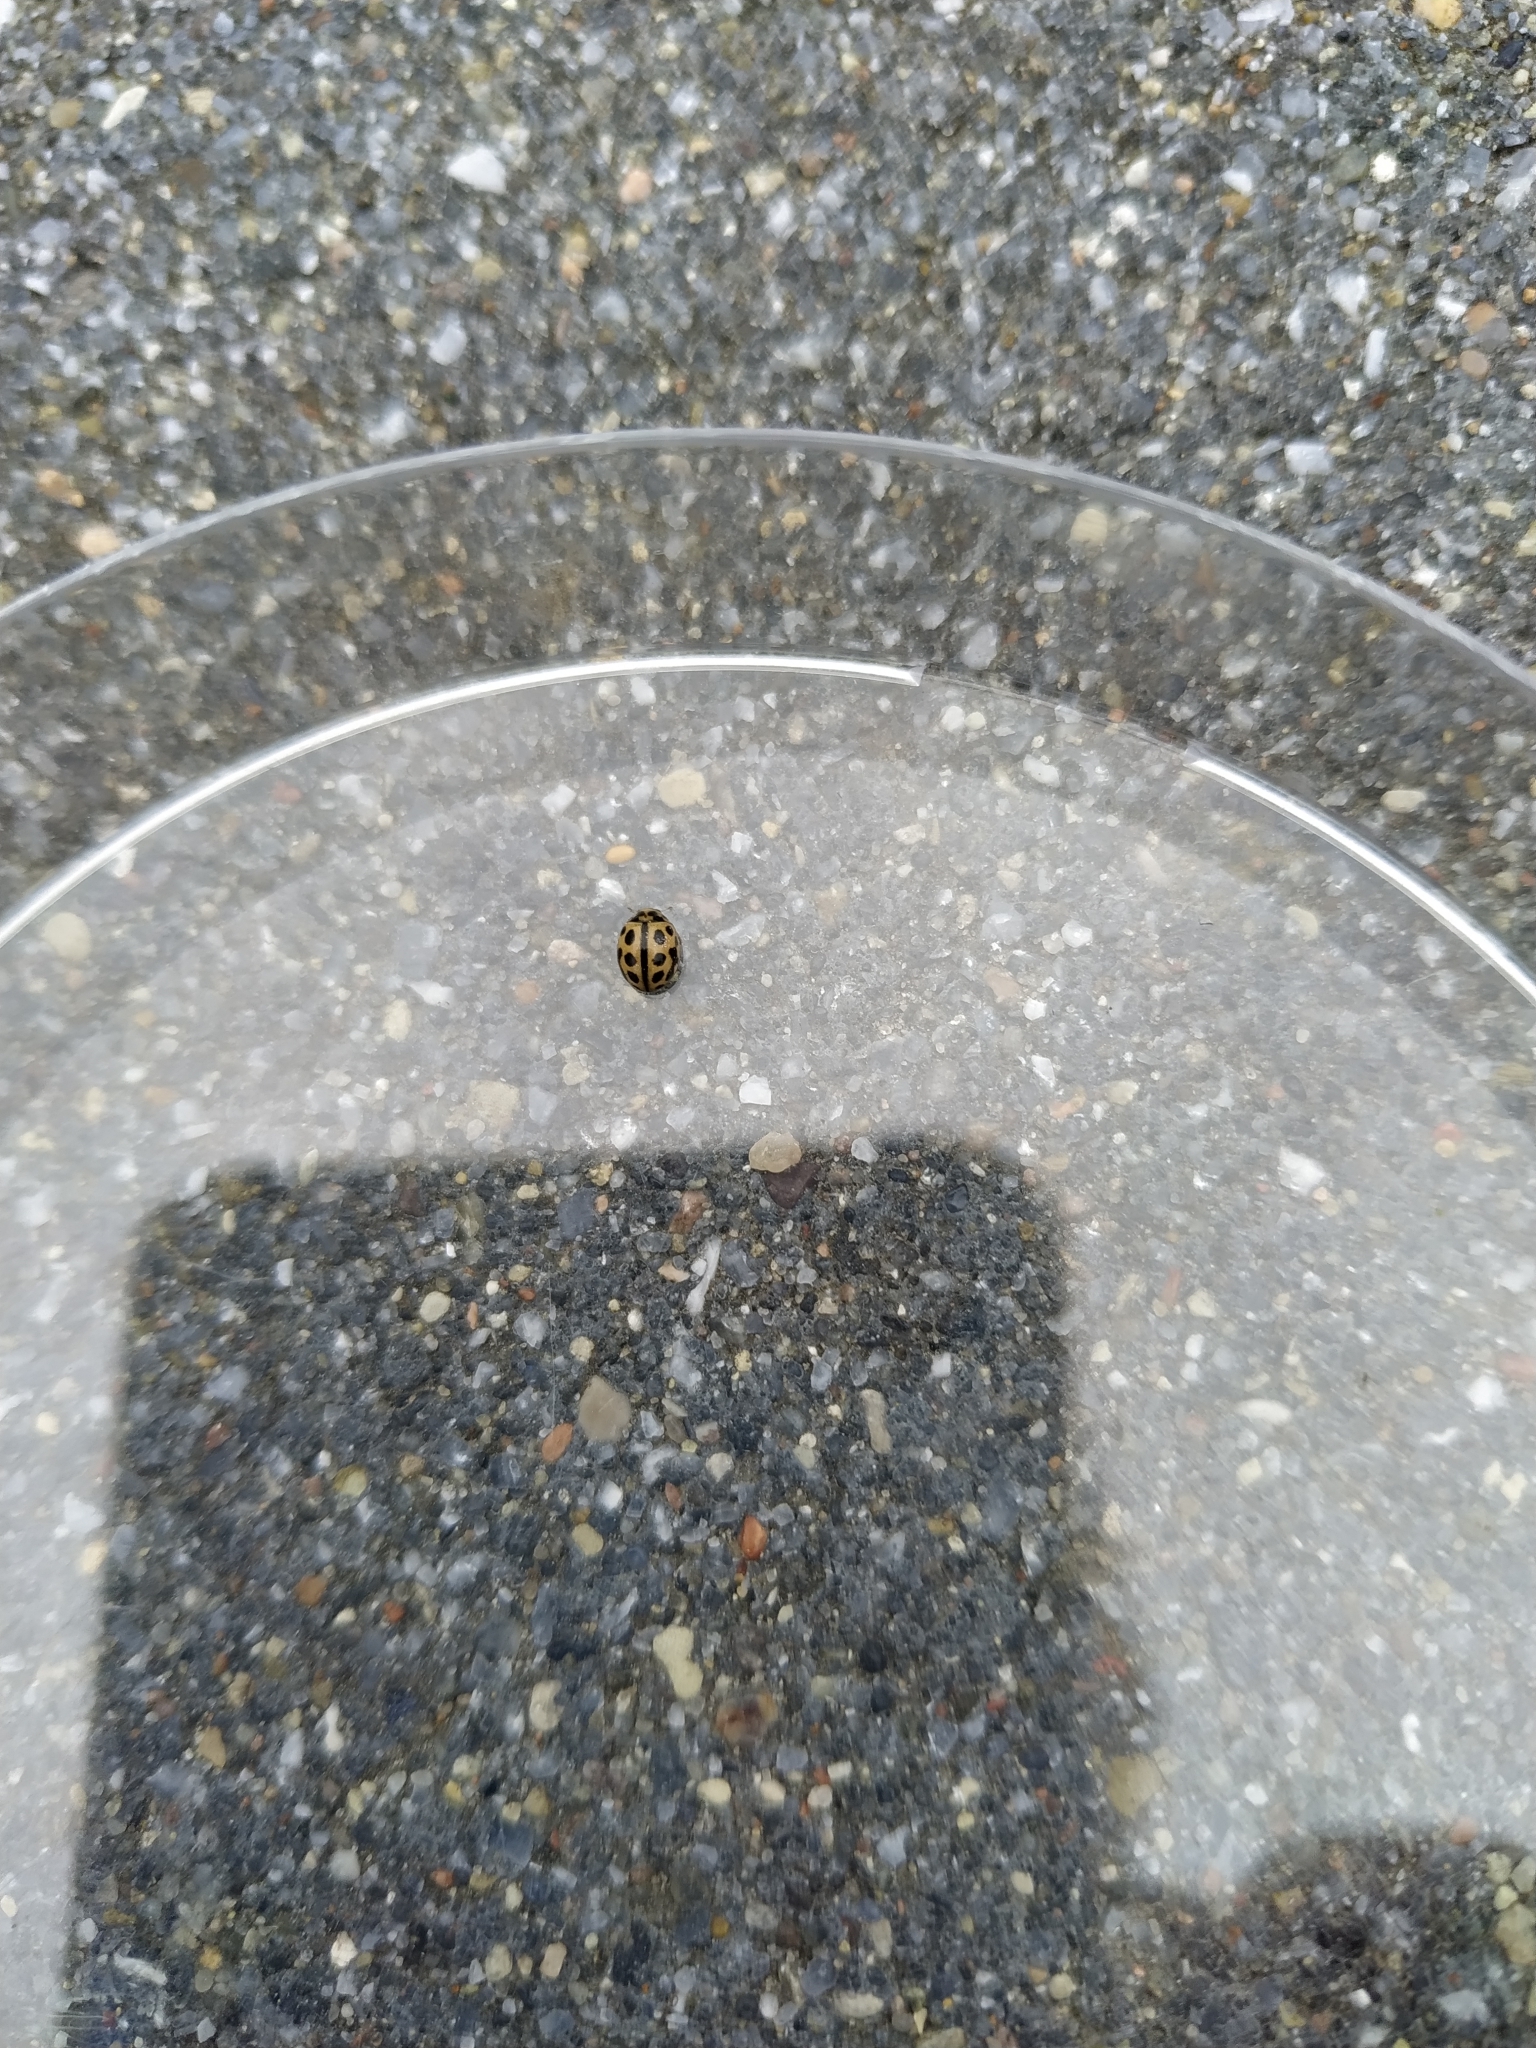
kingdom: Animalia
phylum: Arthropoda
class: Insecta
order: Coleoptera
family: Coccinellidae
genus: Tytthaspis
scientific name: Tytthaspis sedecimpunctata
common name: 16-spot ladybird
